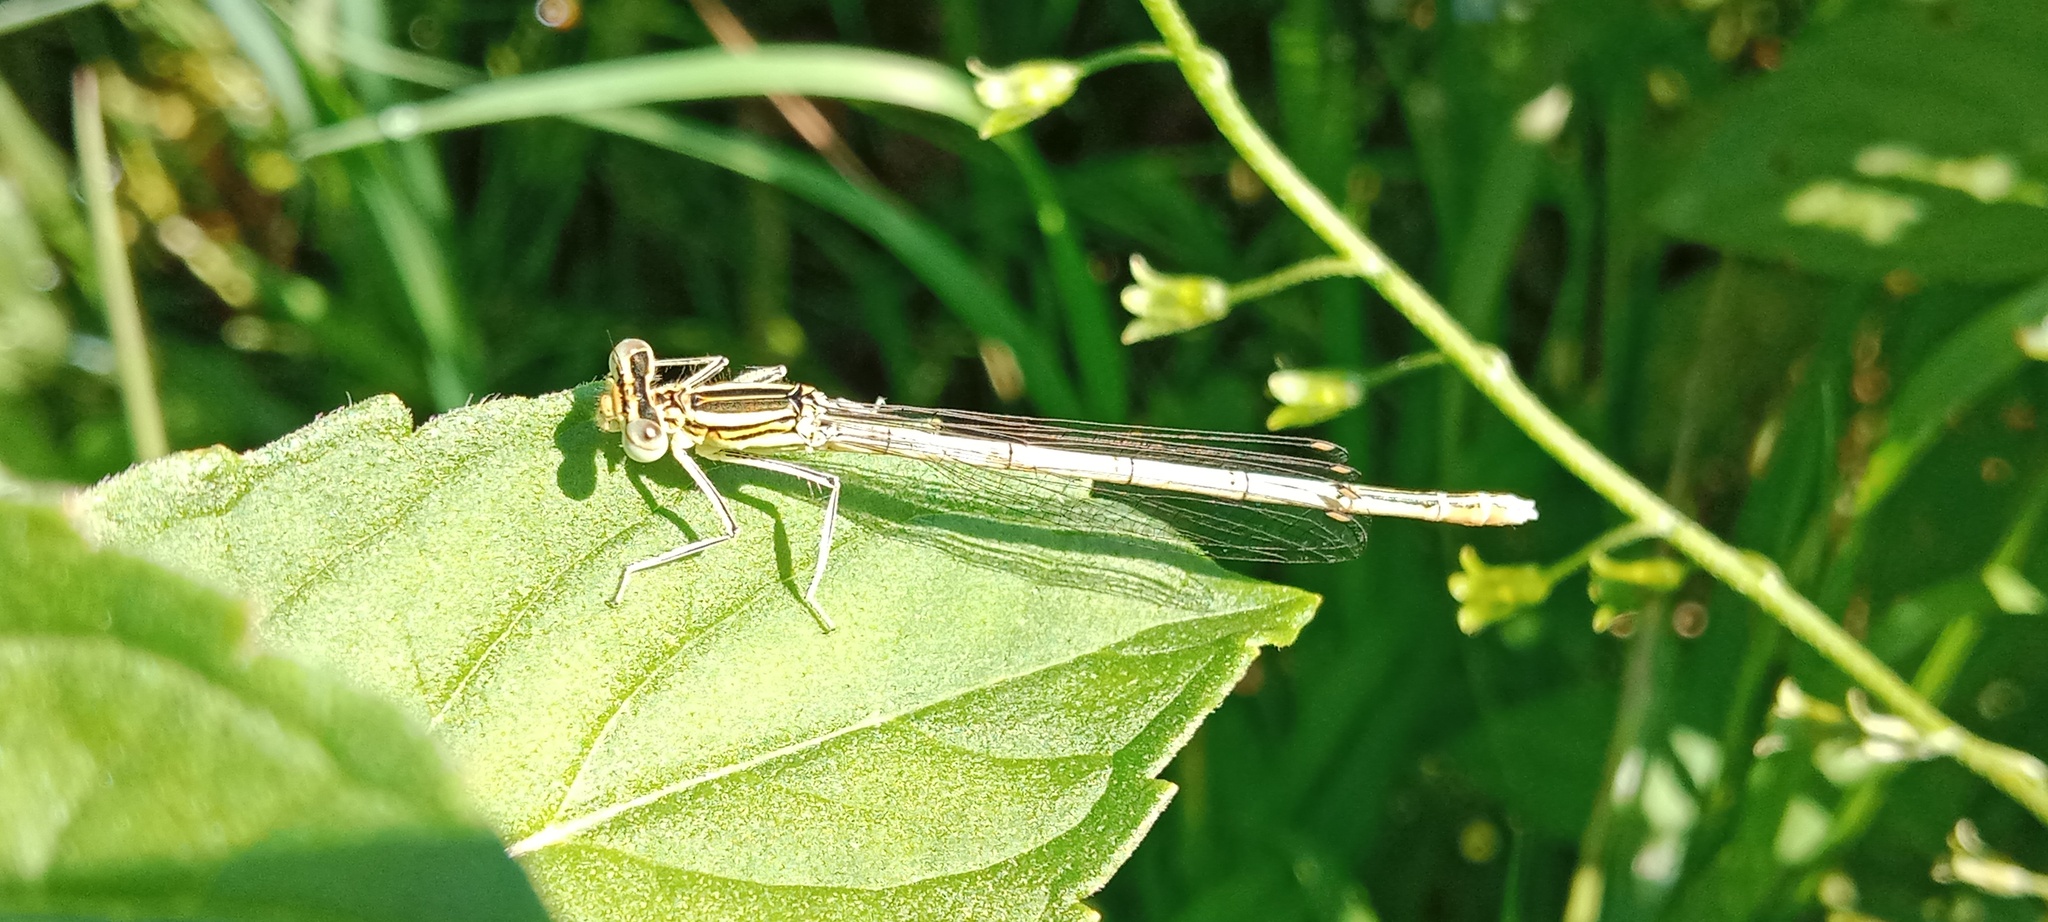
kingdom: Animalia
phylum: Arthropoda
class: Insecta
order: Odonata
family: Platycnemididae
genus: Platycnemis
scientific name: Platycnemis pennipes
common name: White-legged damselfly
